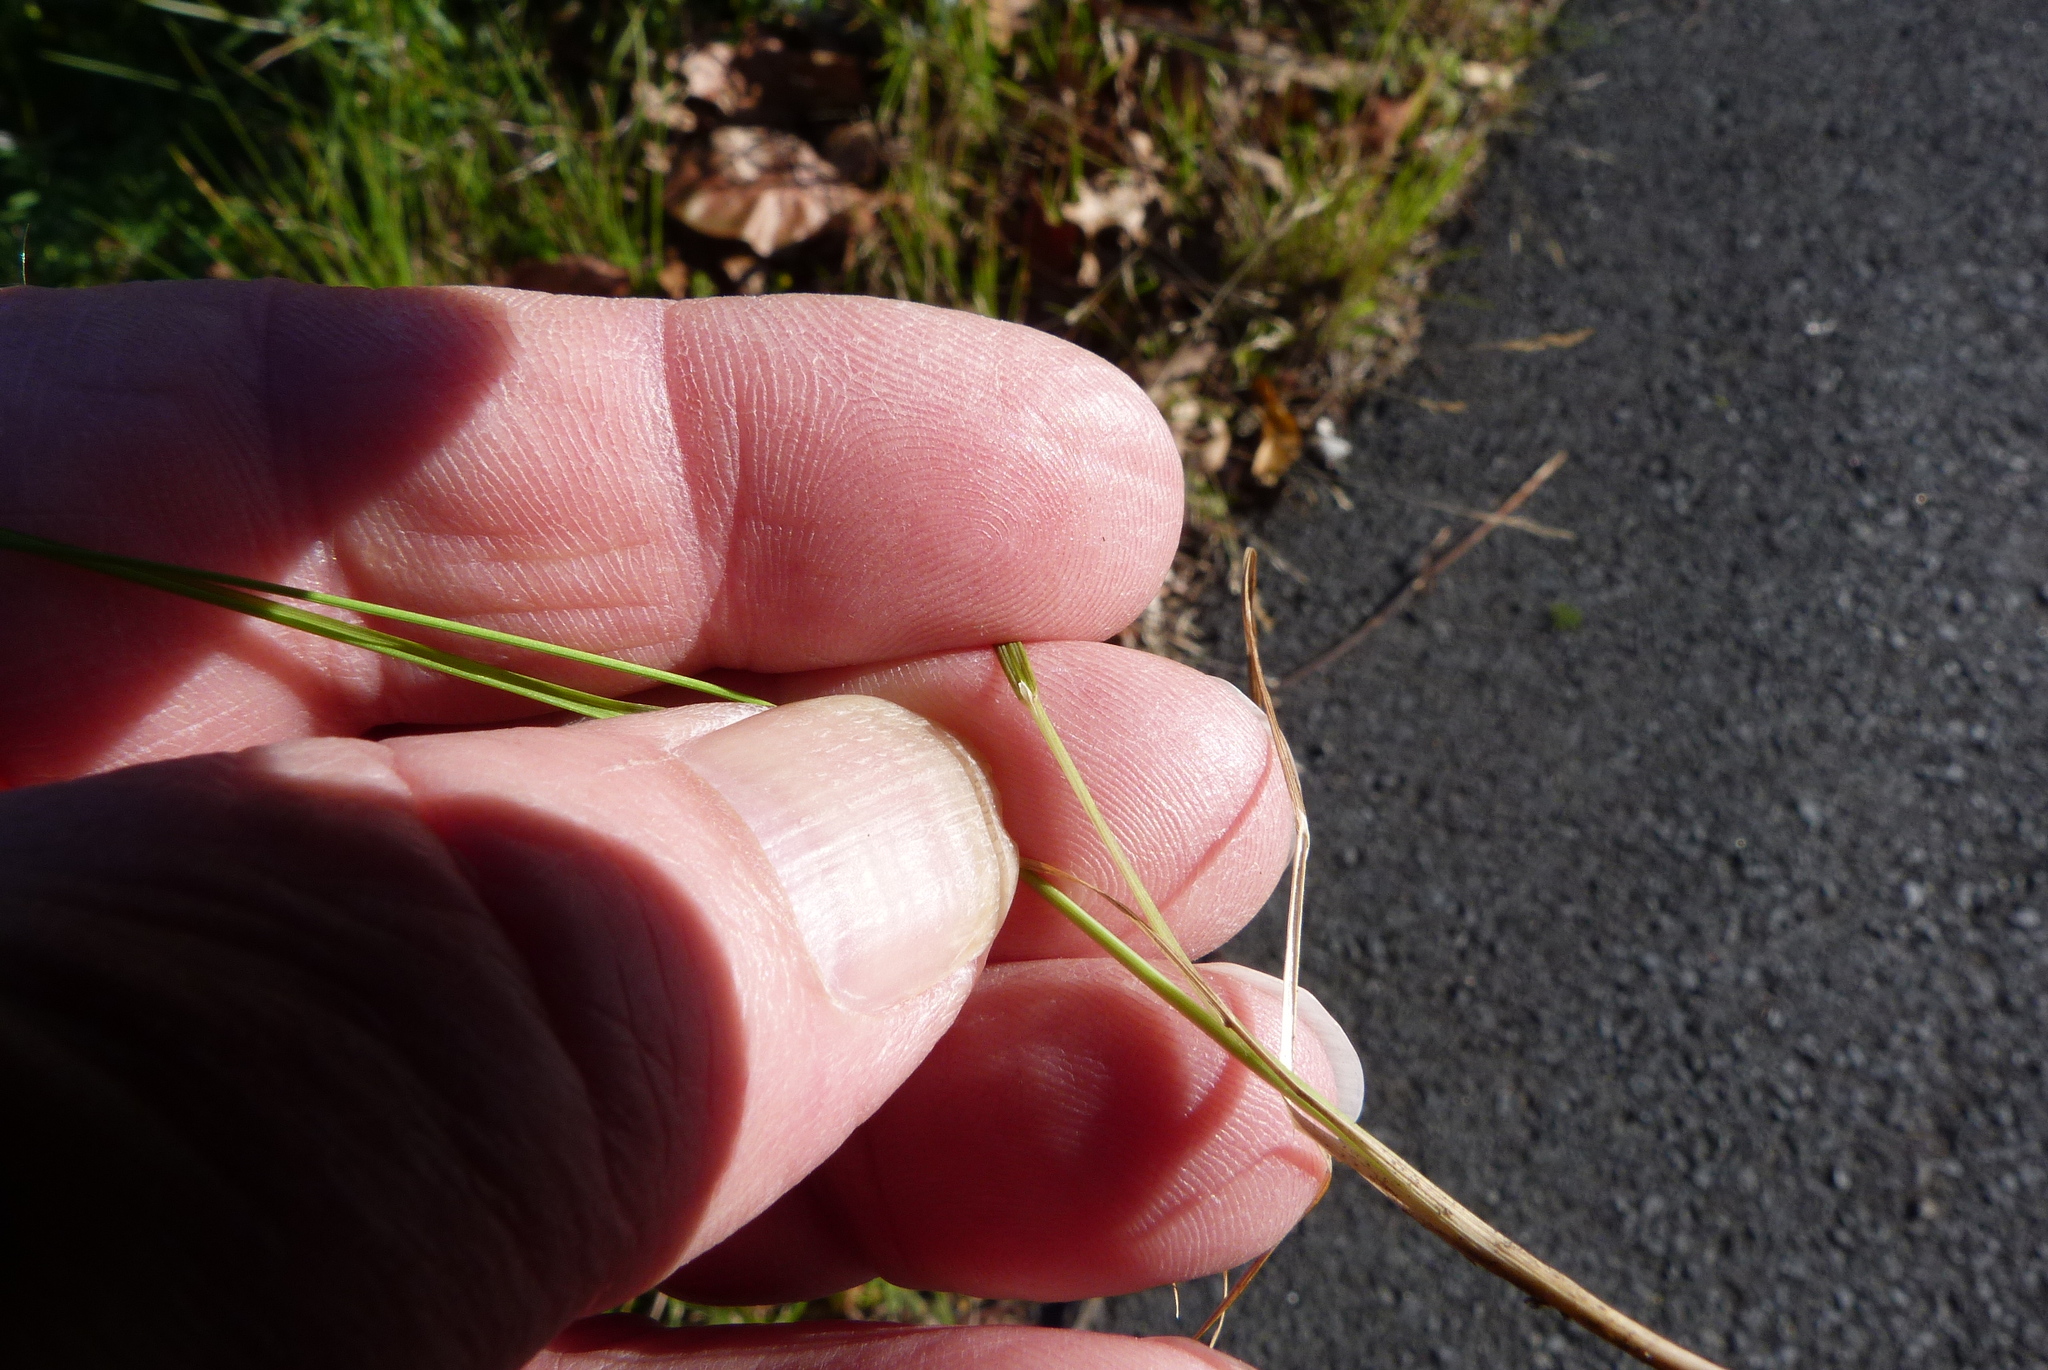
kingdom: Plantae
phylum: Tracheophyta
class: Liliopsida
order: Poales
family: Poaceae
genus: Lachnagrostis
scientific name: Lachnagrostis filiformis
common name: Bentgrass
